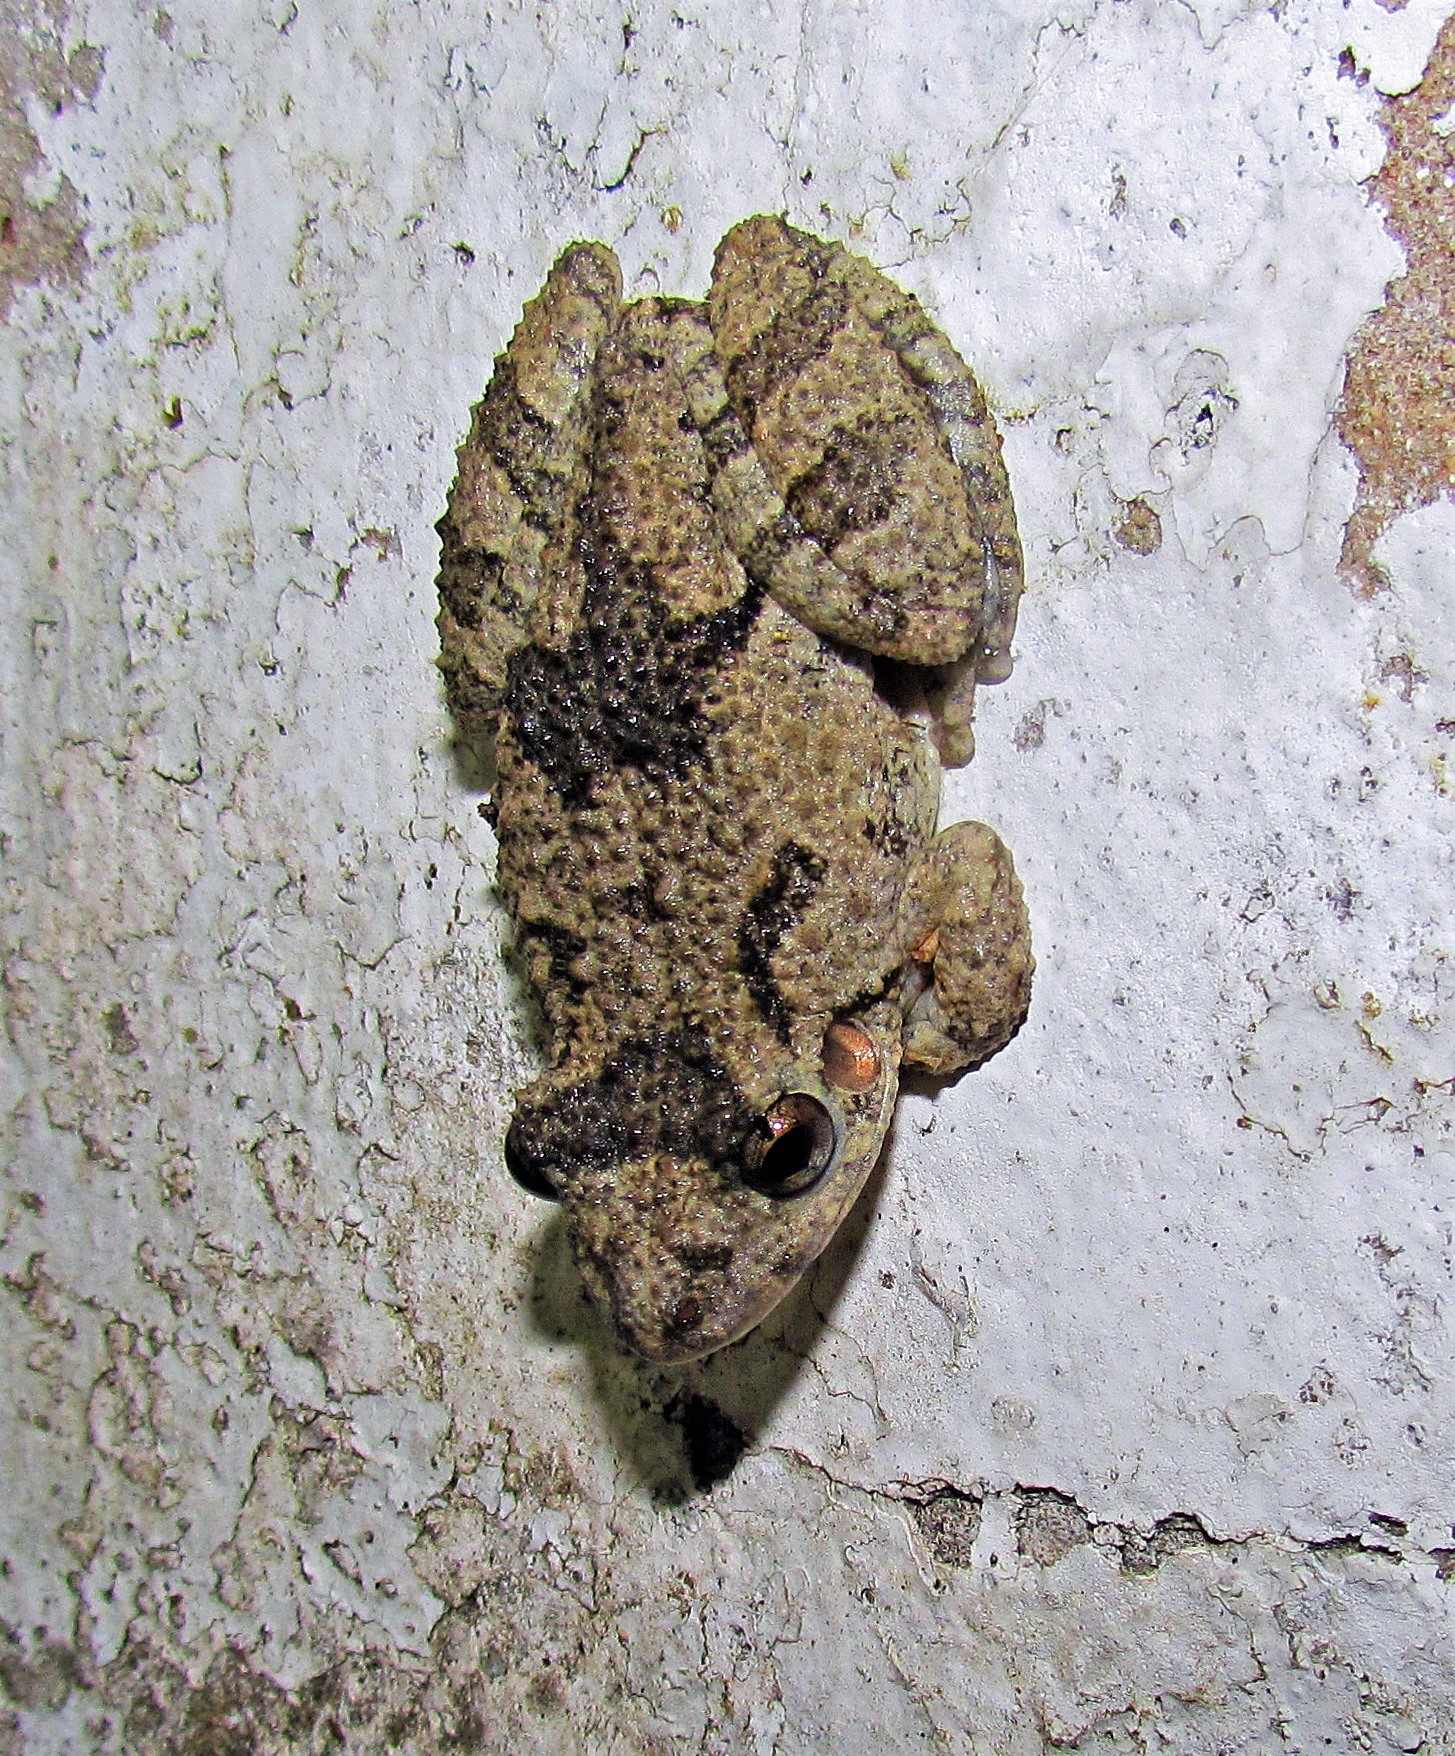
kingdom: Animalia
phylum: Chordata
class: Amphibia
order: Anura
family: Hylidae
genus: Scinax
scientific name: Scinax acuminatus
